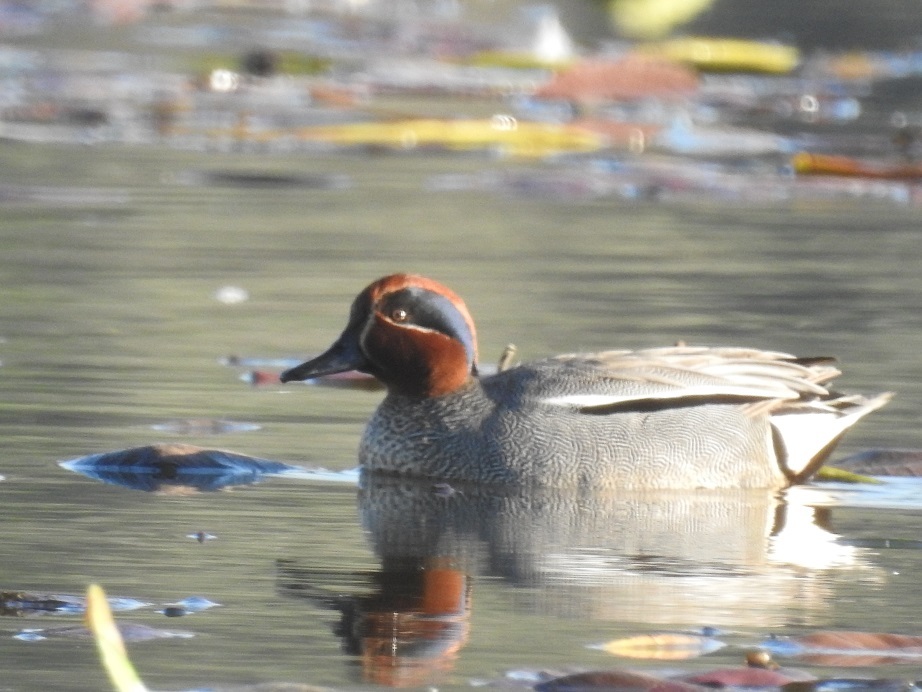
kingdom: Animalia
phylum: Chordata
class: Aves
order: Anseriformes
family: Anatidae
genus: Anas
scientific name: Anas crecca
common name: Eurasian teal
